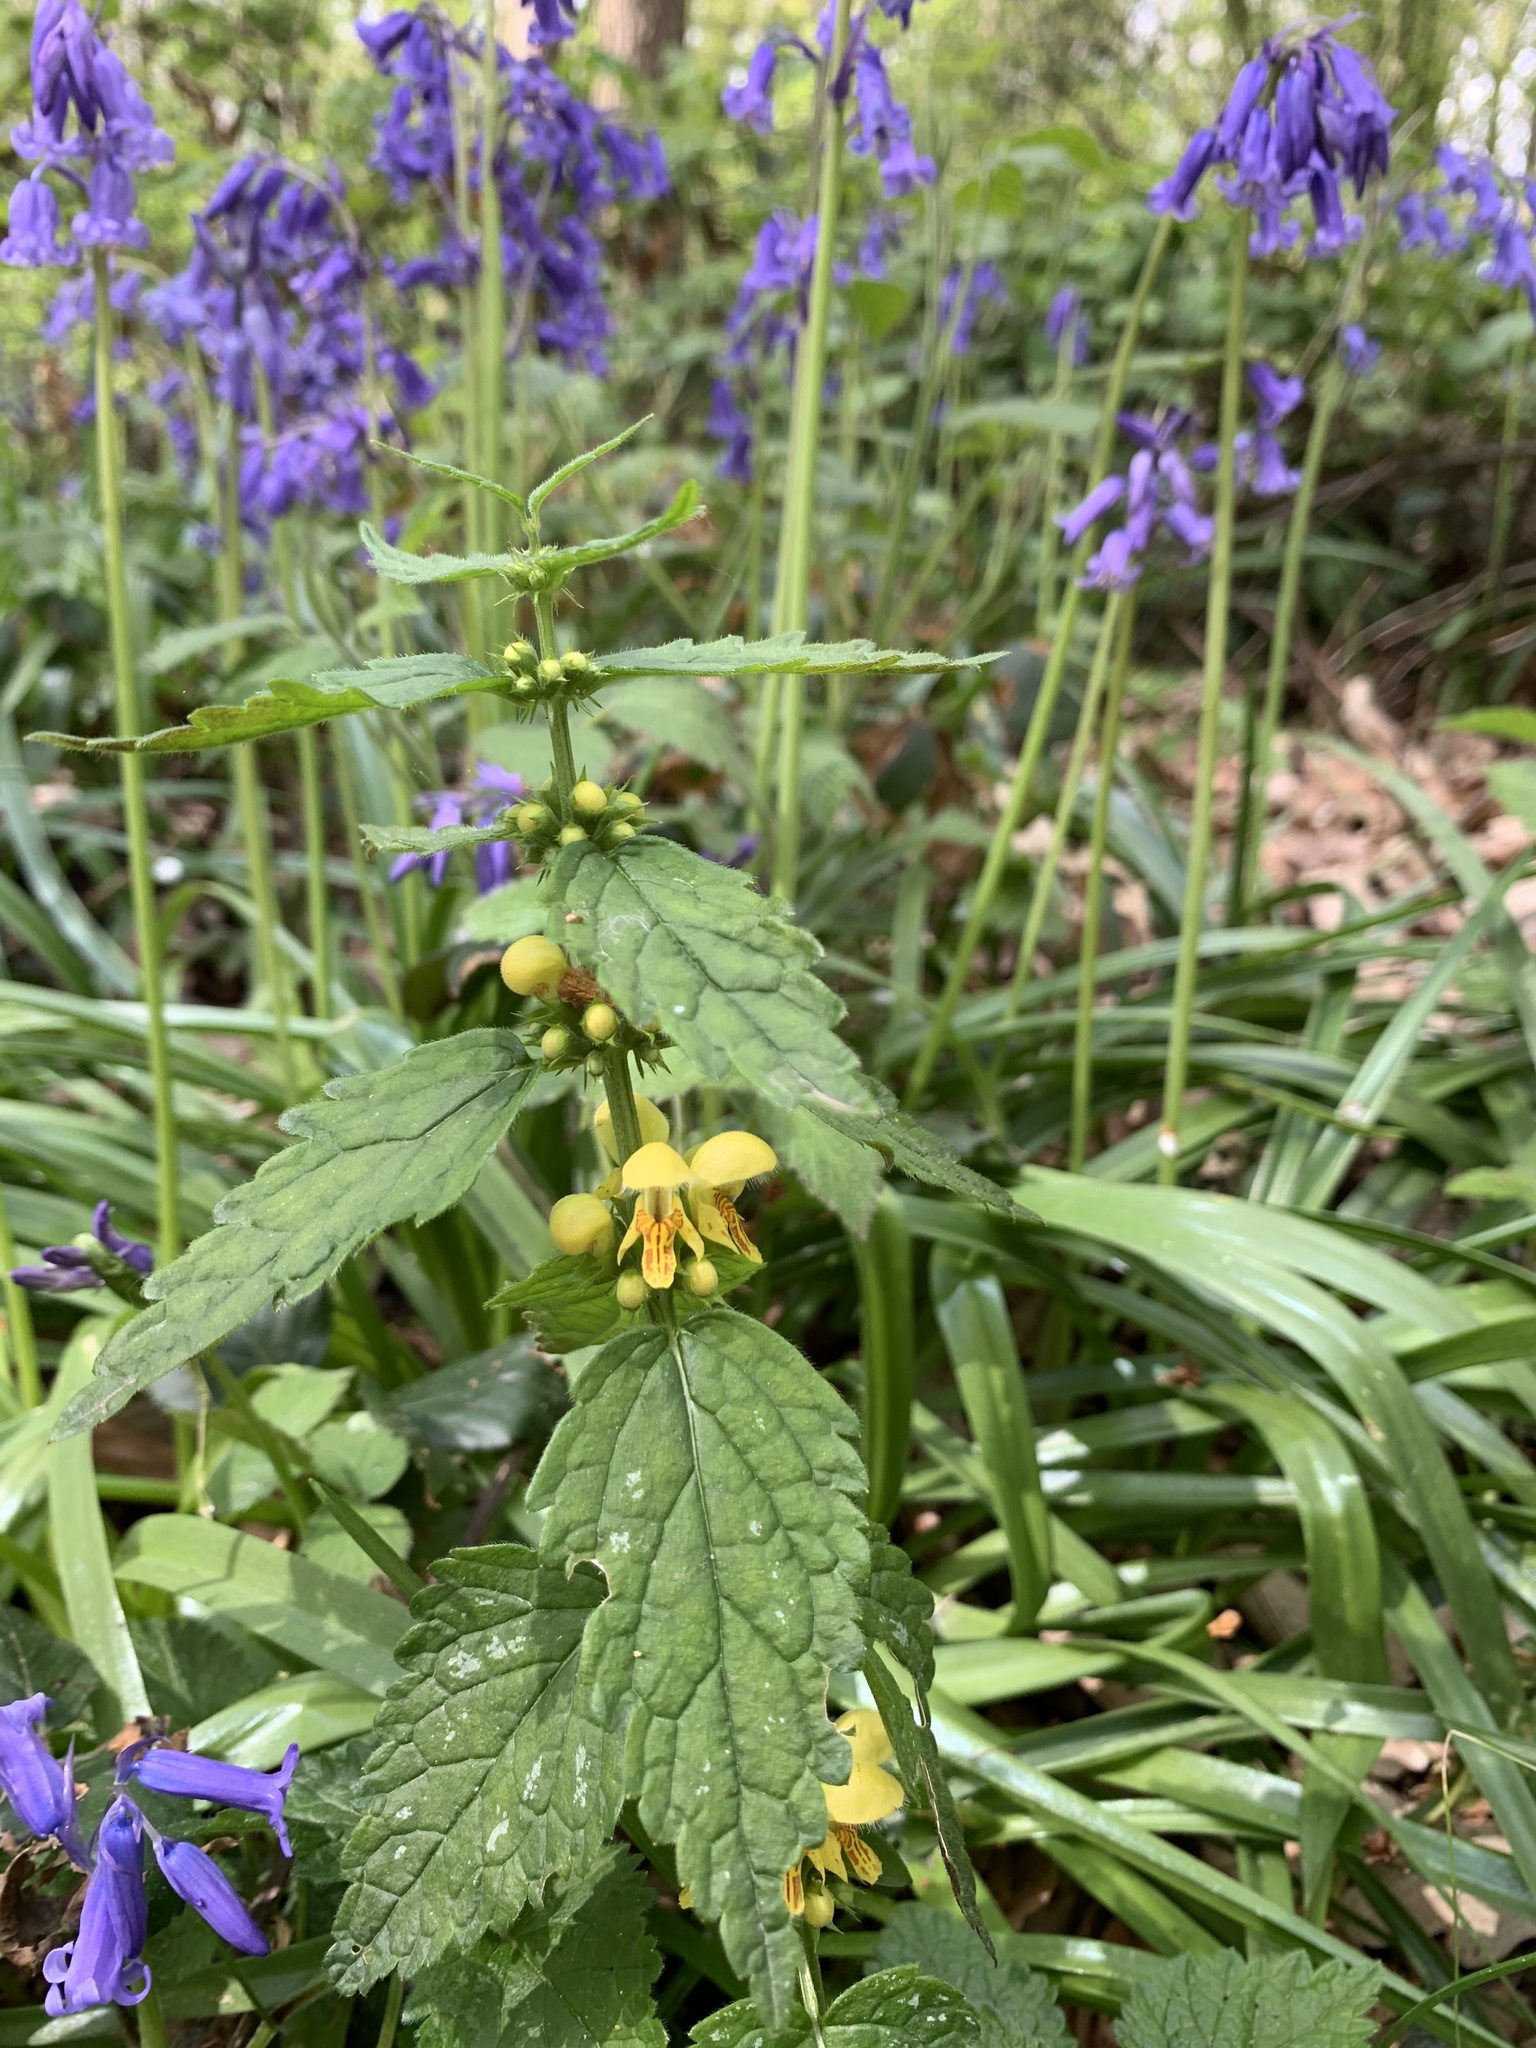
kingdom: Plantae
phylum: Tracheophyta
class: Magnoliopsida
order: Lamiales
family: Lamiaceae
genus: Lamium
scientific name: Lamium galeobdolon
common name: Yellow archangel
